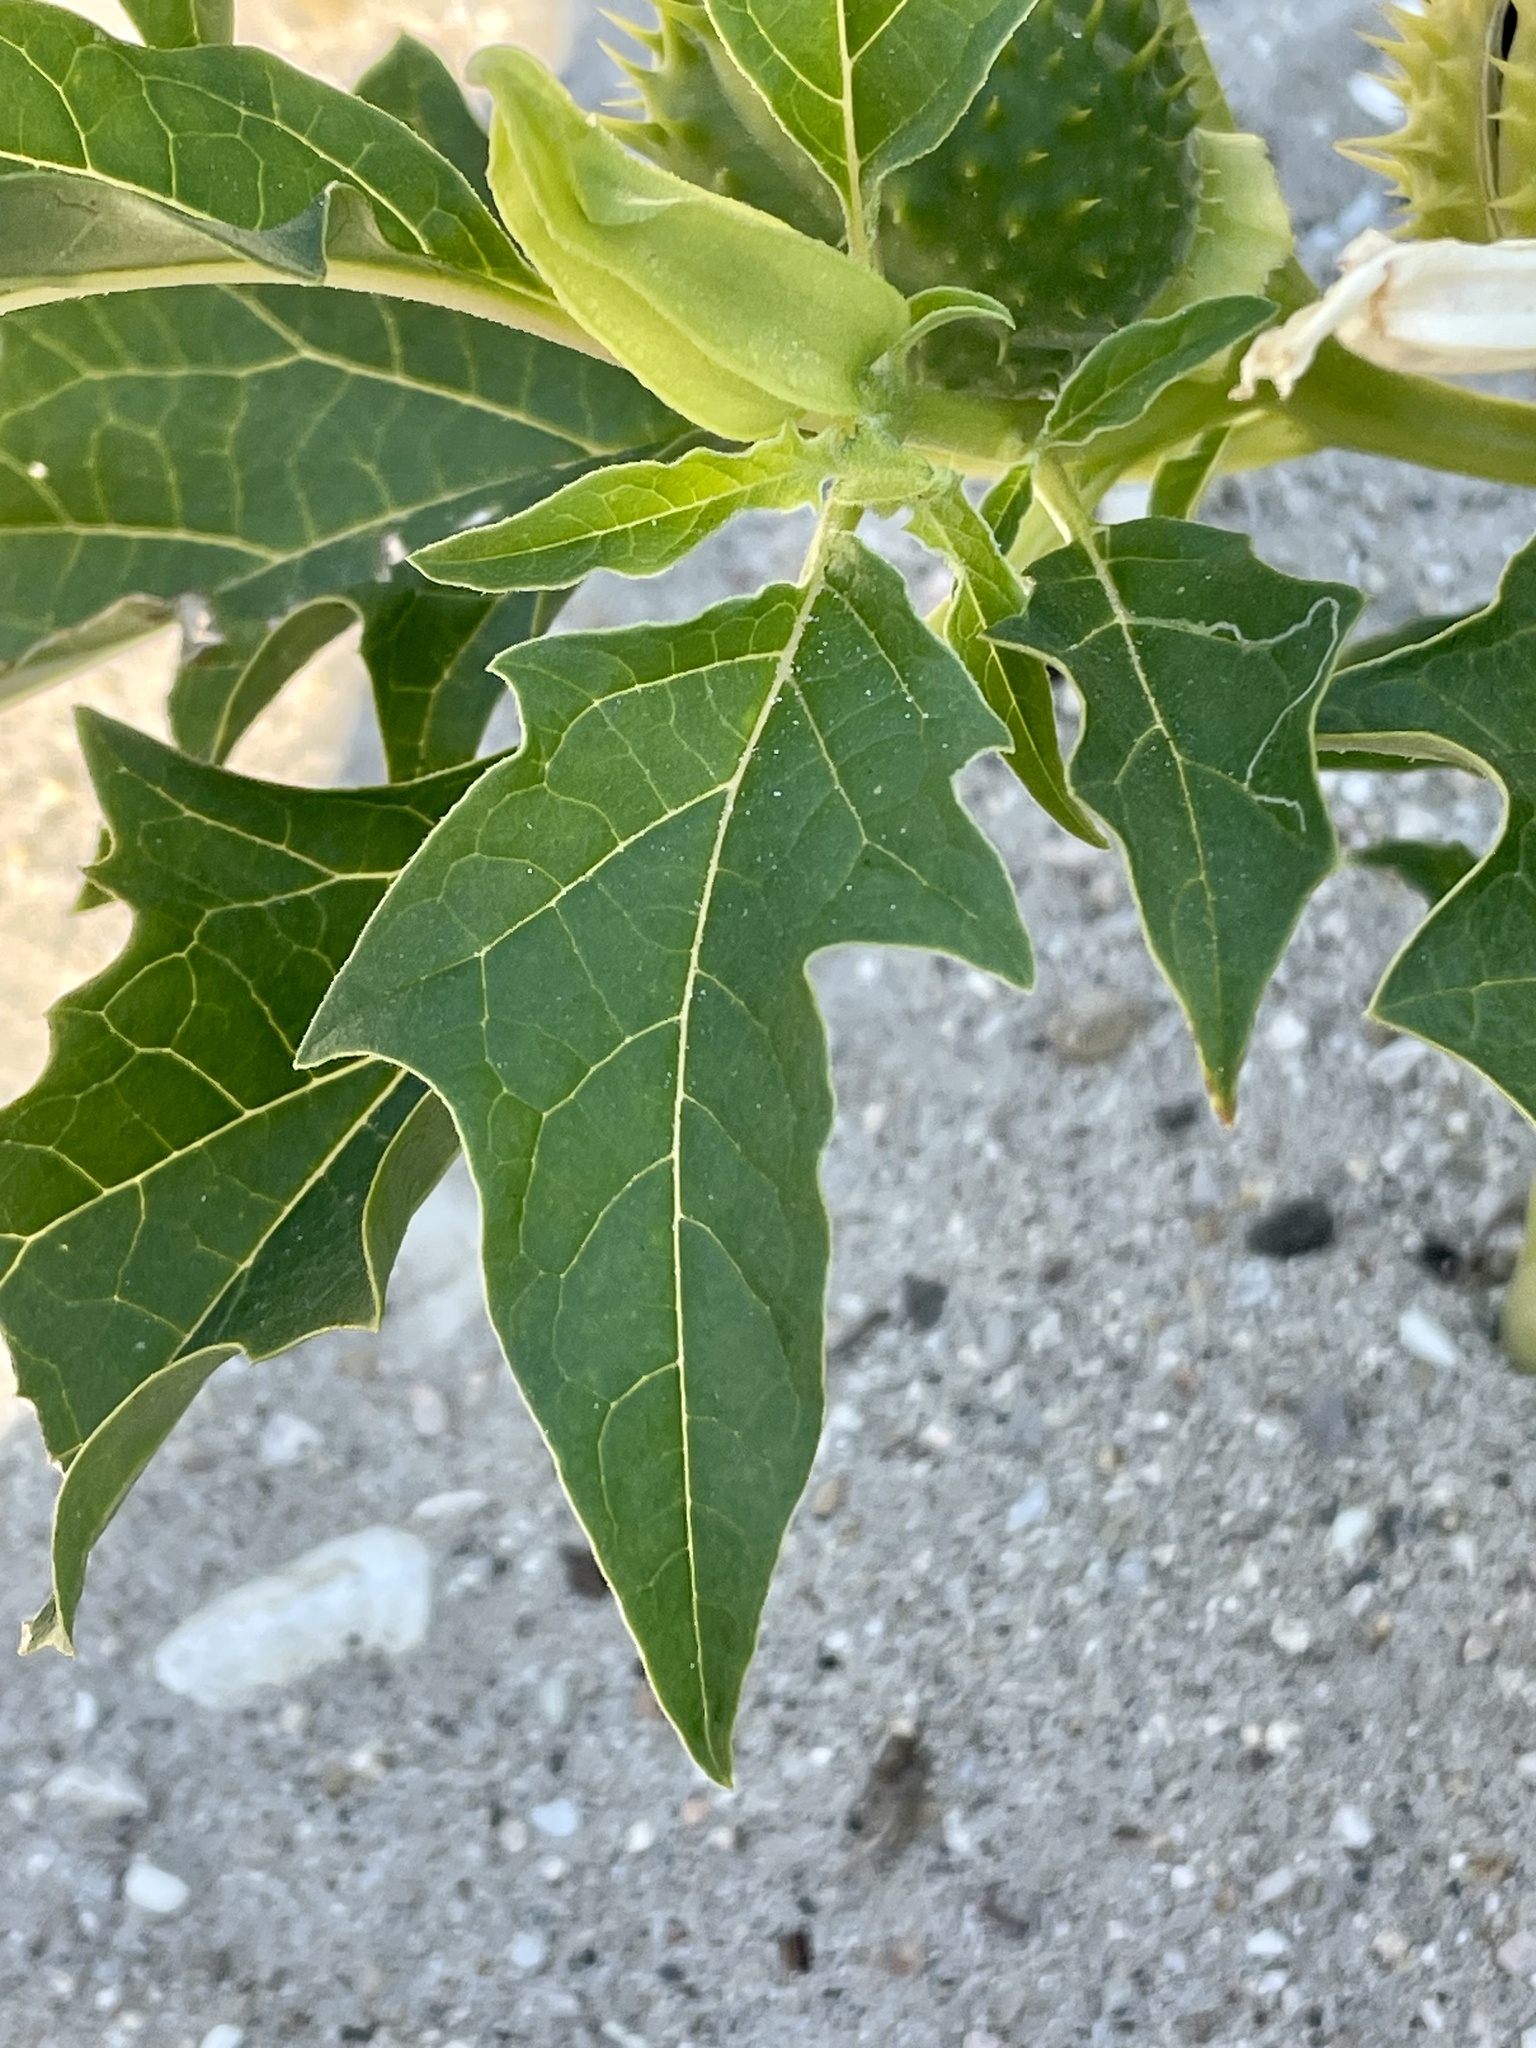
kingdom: Plantae
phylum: Tracheophyta
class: Magnoliopsida
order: Solanales
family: Solanaceae
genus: Datura
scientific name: Datura stramonium
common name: Thorn-apple
